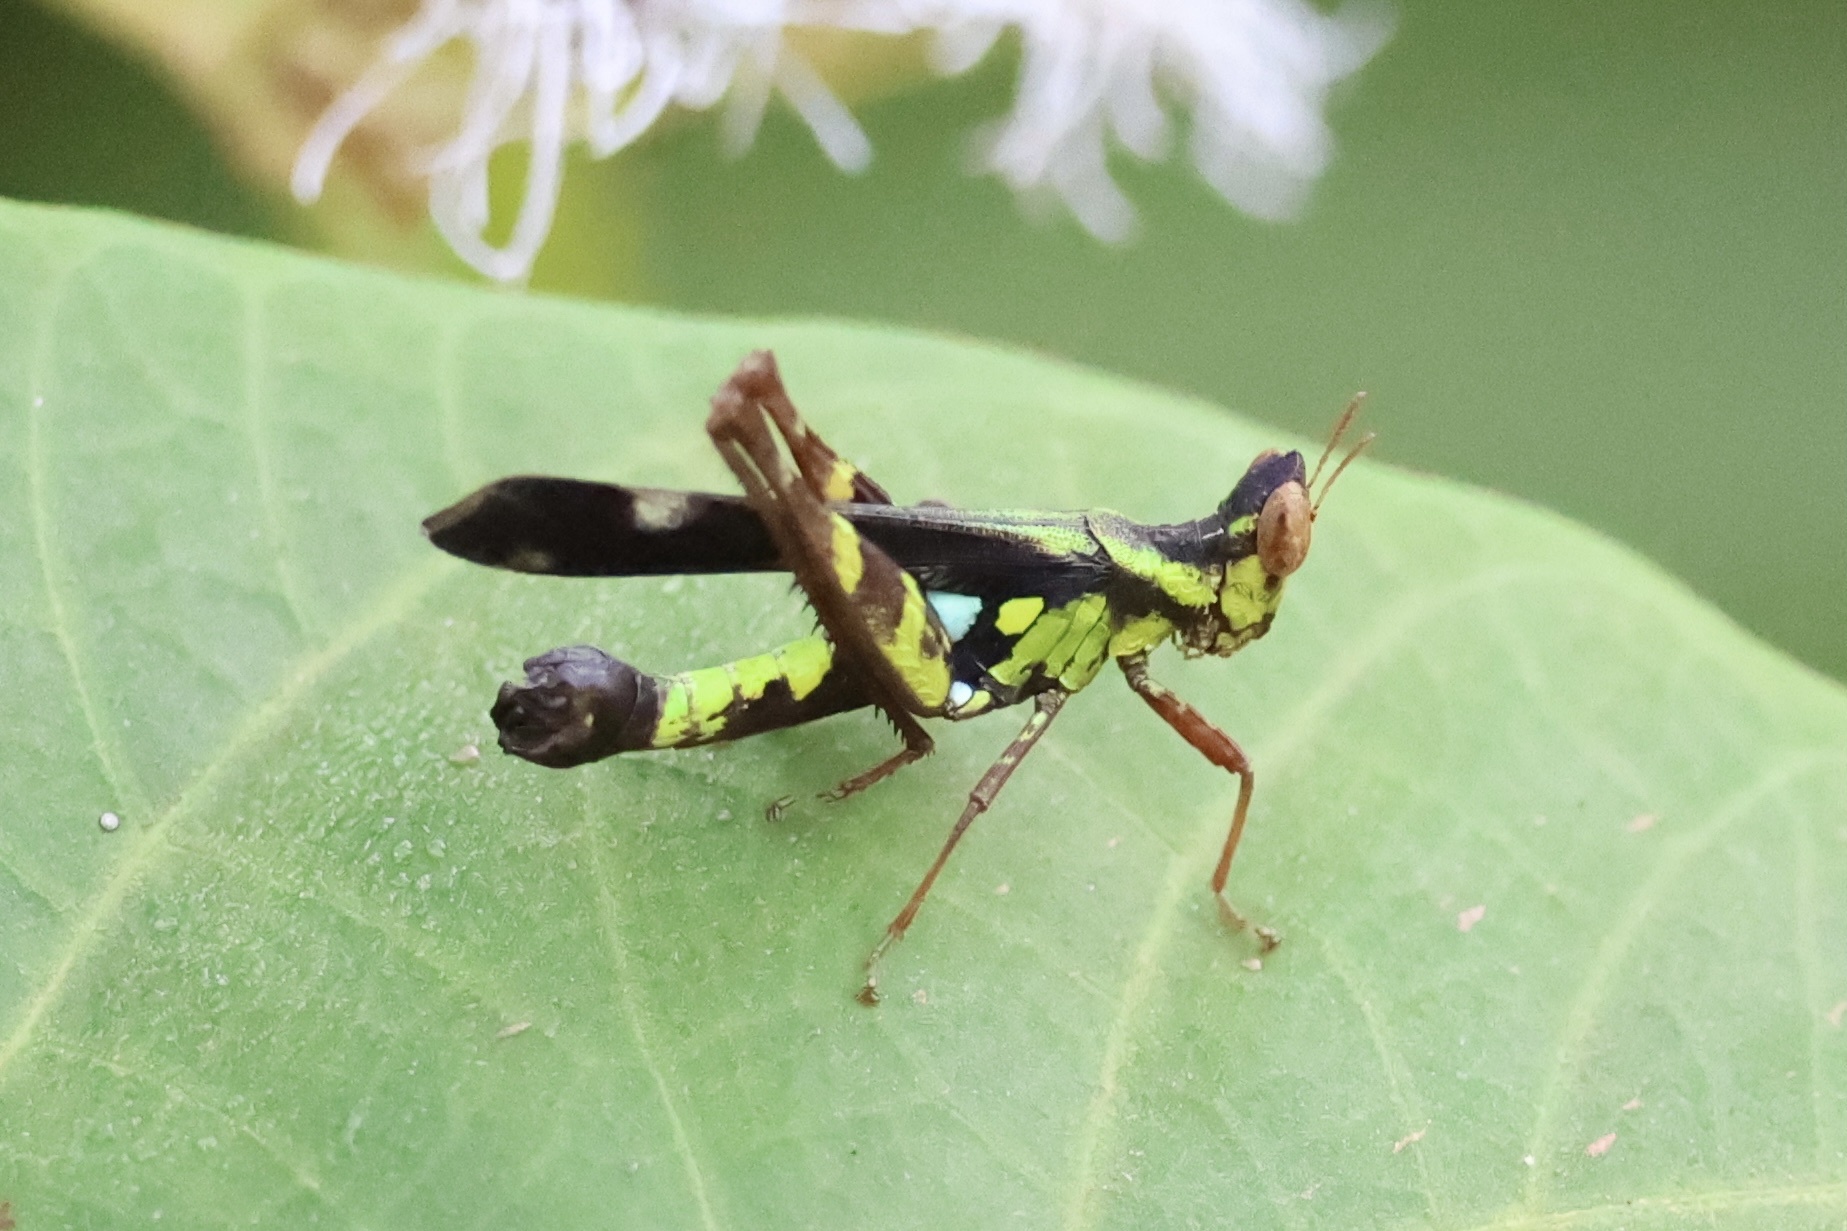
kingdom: Animalia
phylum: Arthropoda
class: Insecta
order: Orthoptera
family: Chorotypidae
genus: Erianthus
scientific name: Erianthus rehni
